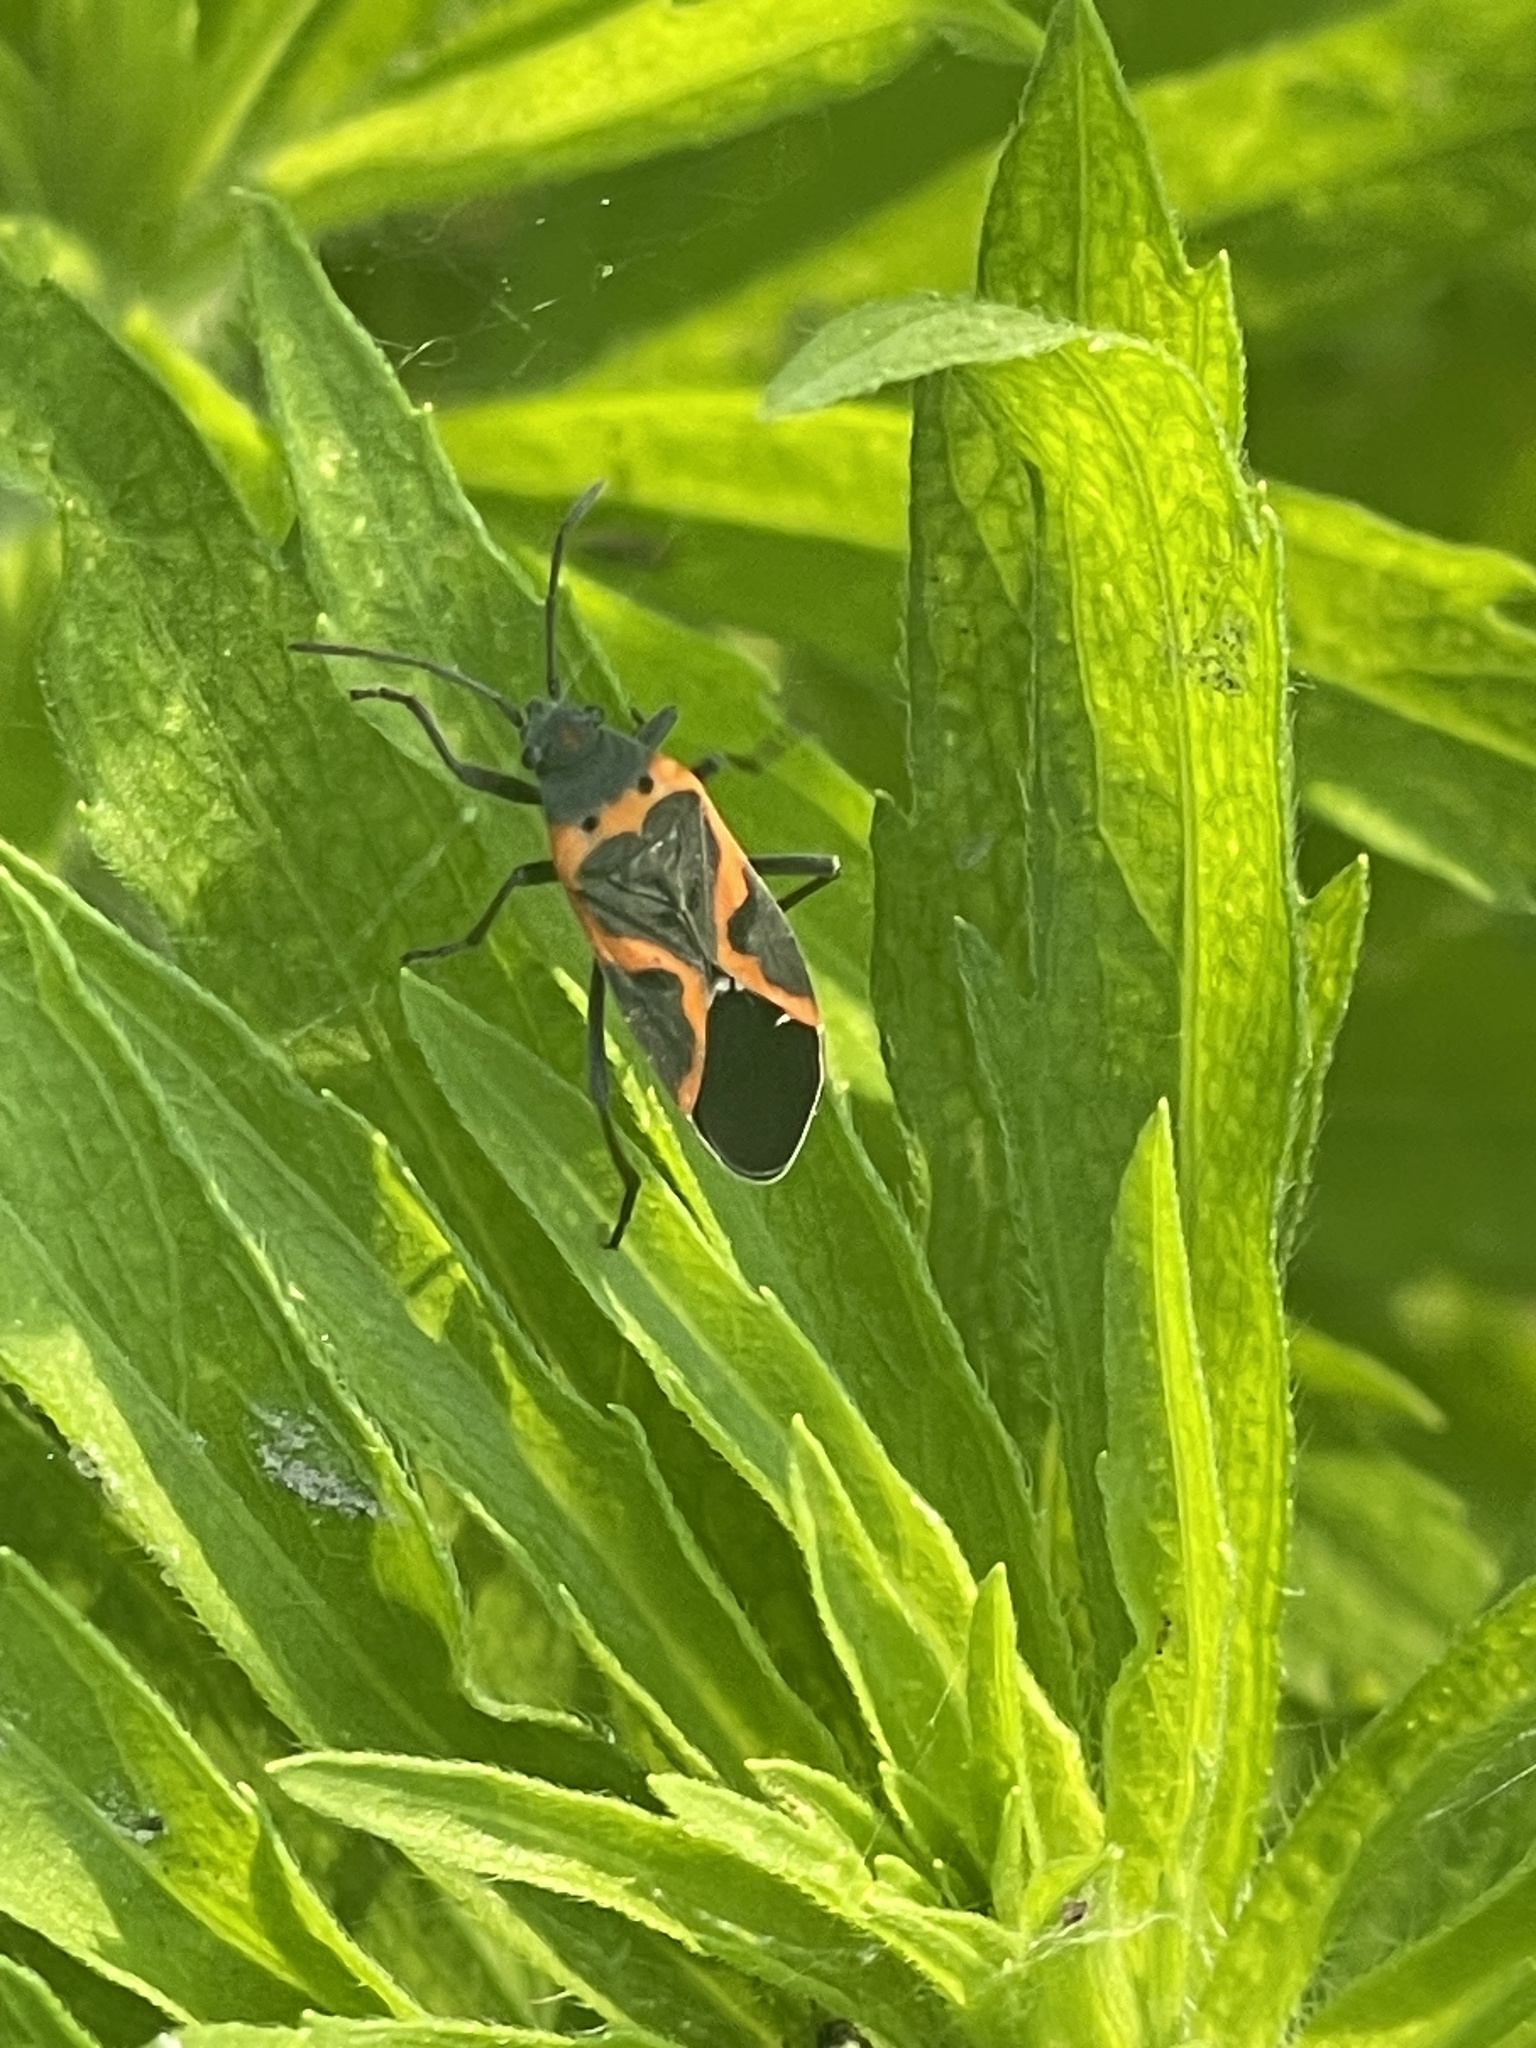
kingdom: Animalia
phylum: Arthropoda
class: Insecta
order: Hemiptera
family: Lygaeidae
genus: Lygaeus
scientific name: Lygaeus kalmii
